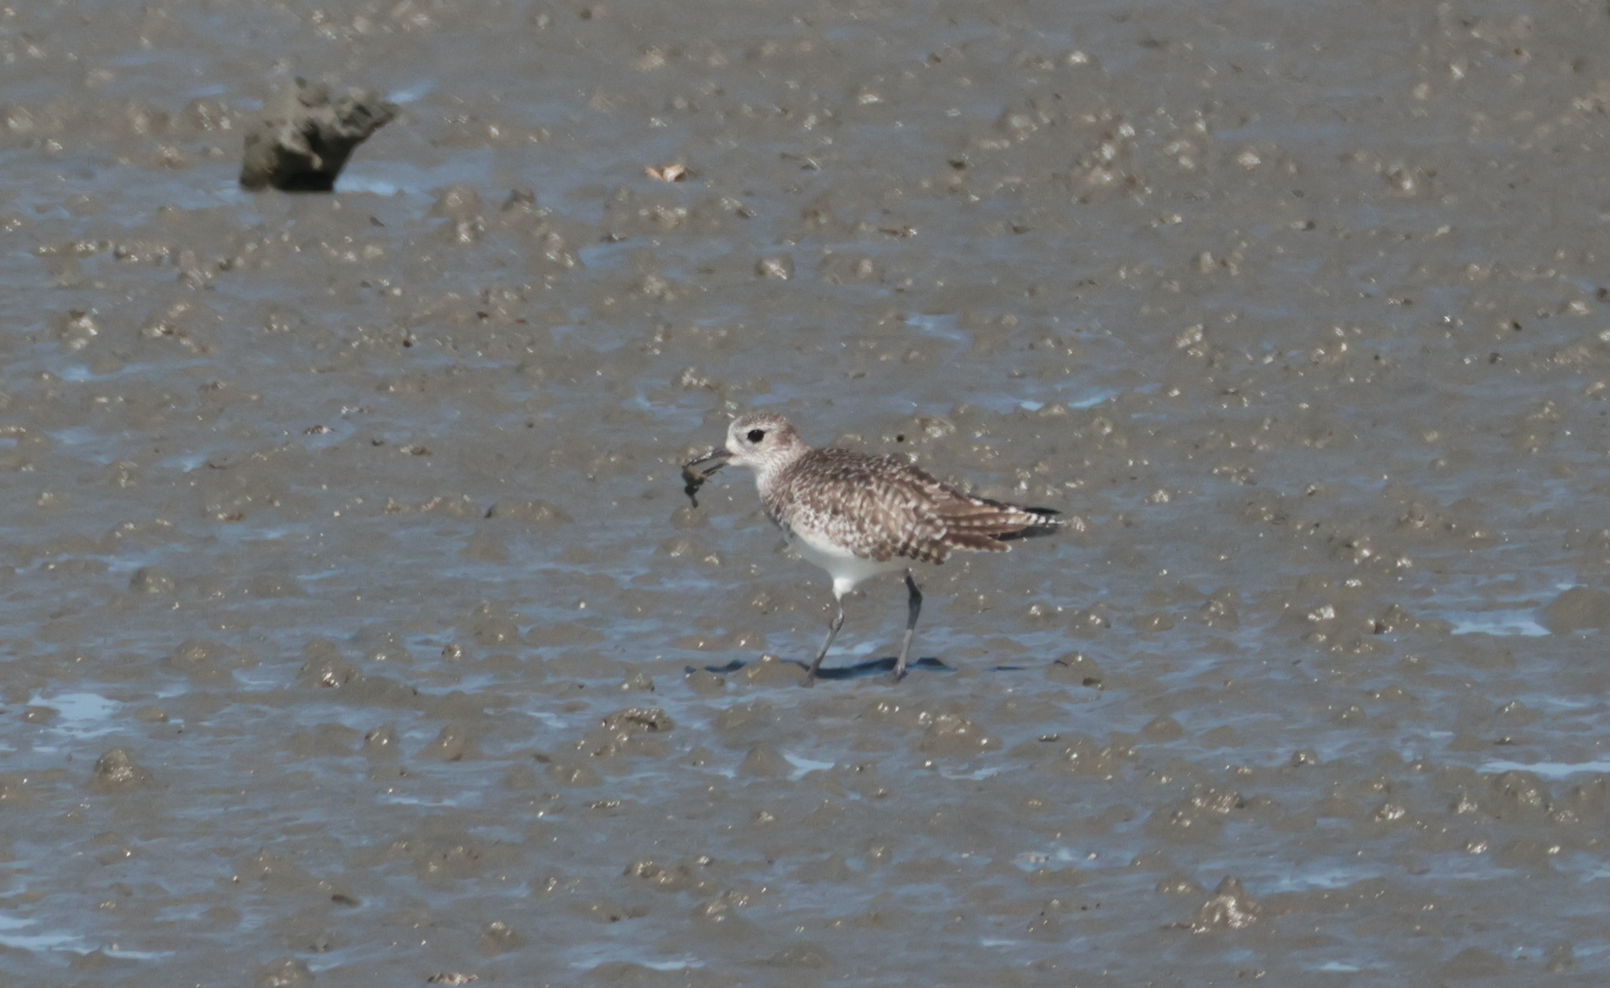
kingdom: Animalia
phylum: Chordata
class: Aves
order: Charadriiformes
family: Charadriidae
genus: Pluvialis
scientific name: Pluvialis squatarola
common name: Grey plover
